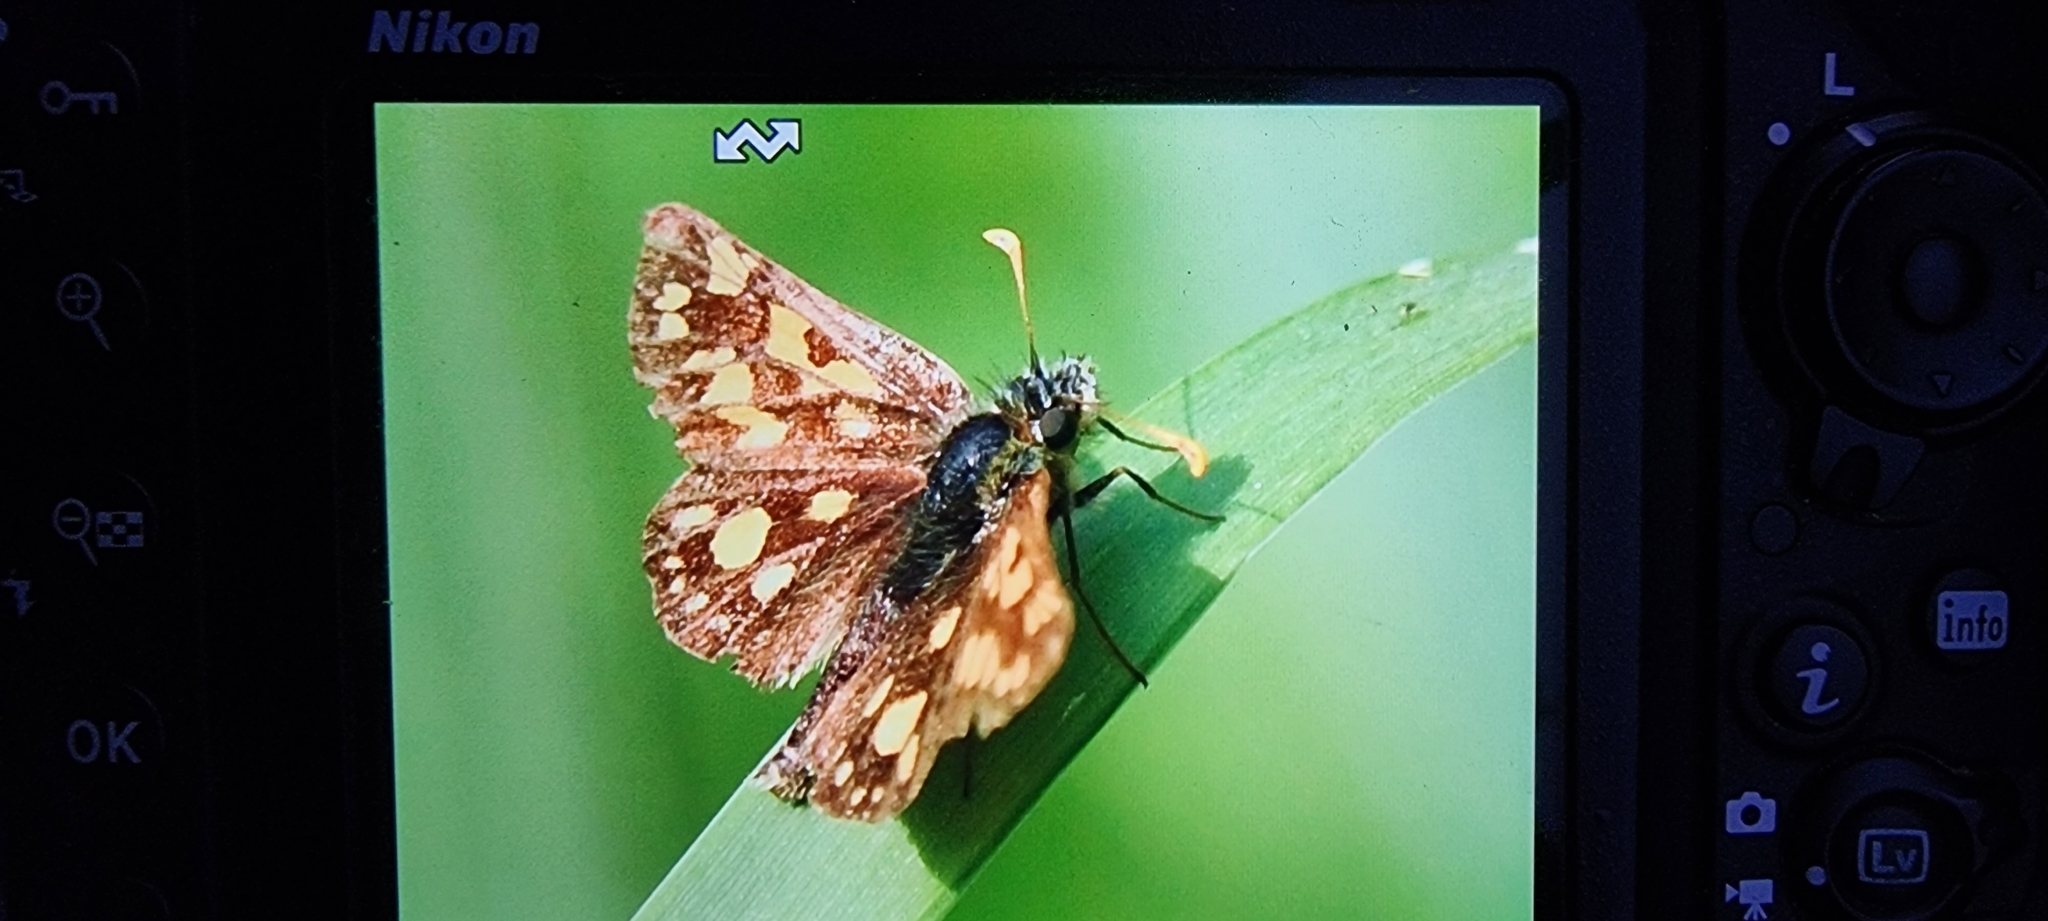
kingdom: Animalia
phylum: Arthropoda
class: Insecta
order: Lepidoptera
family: Hesperiidae
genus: Carterocephalus
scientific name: Carterocephalus palaemon
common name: Chequered skipper
